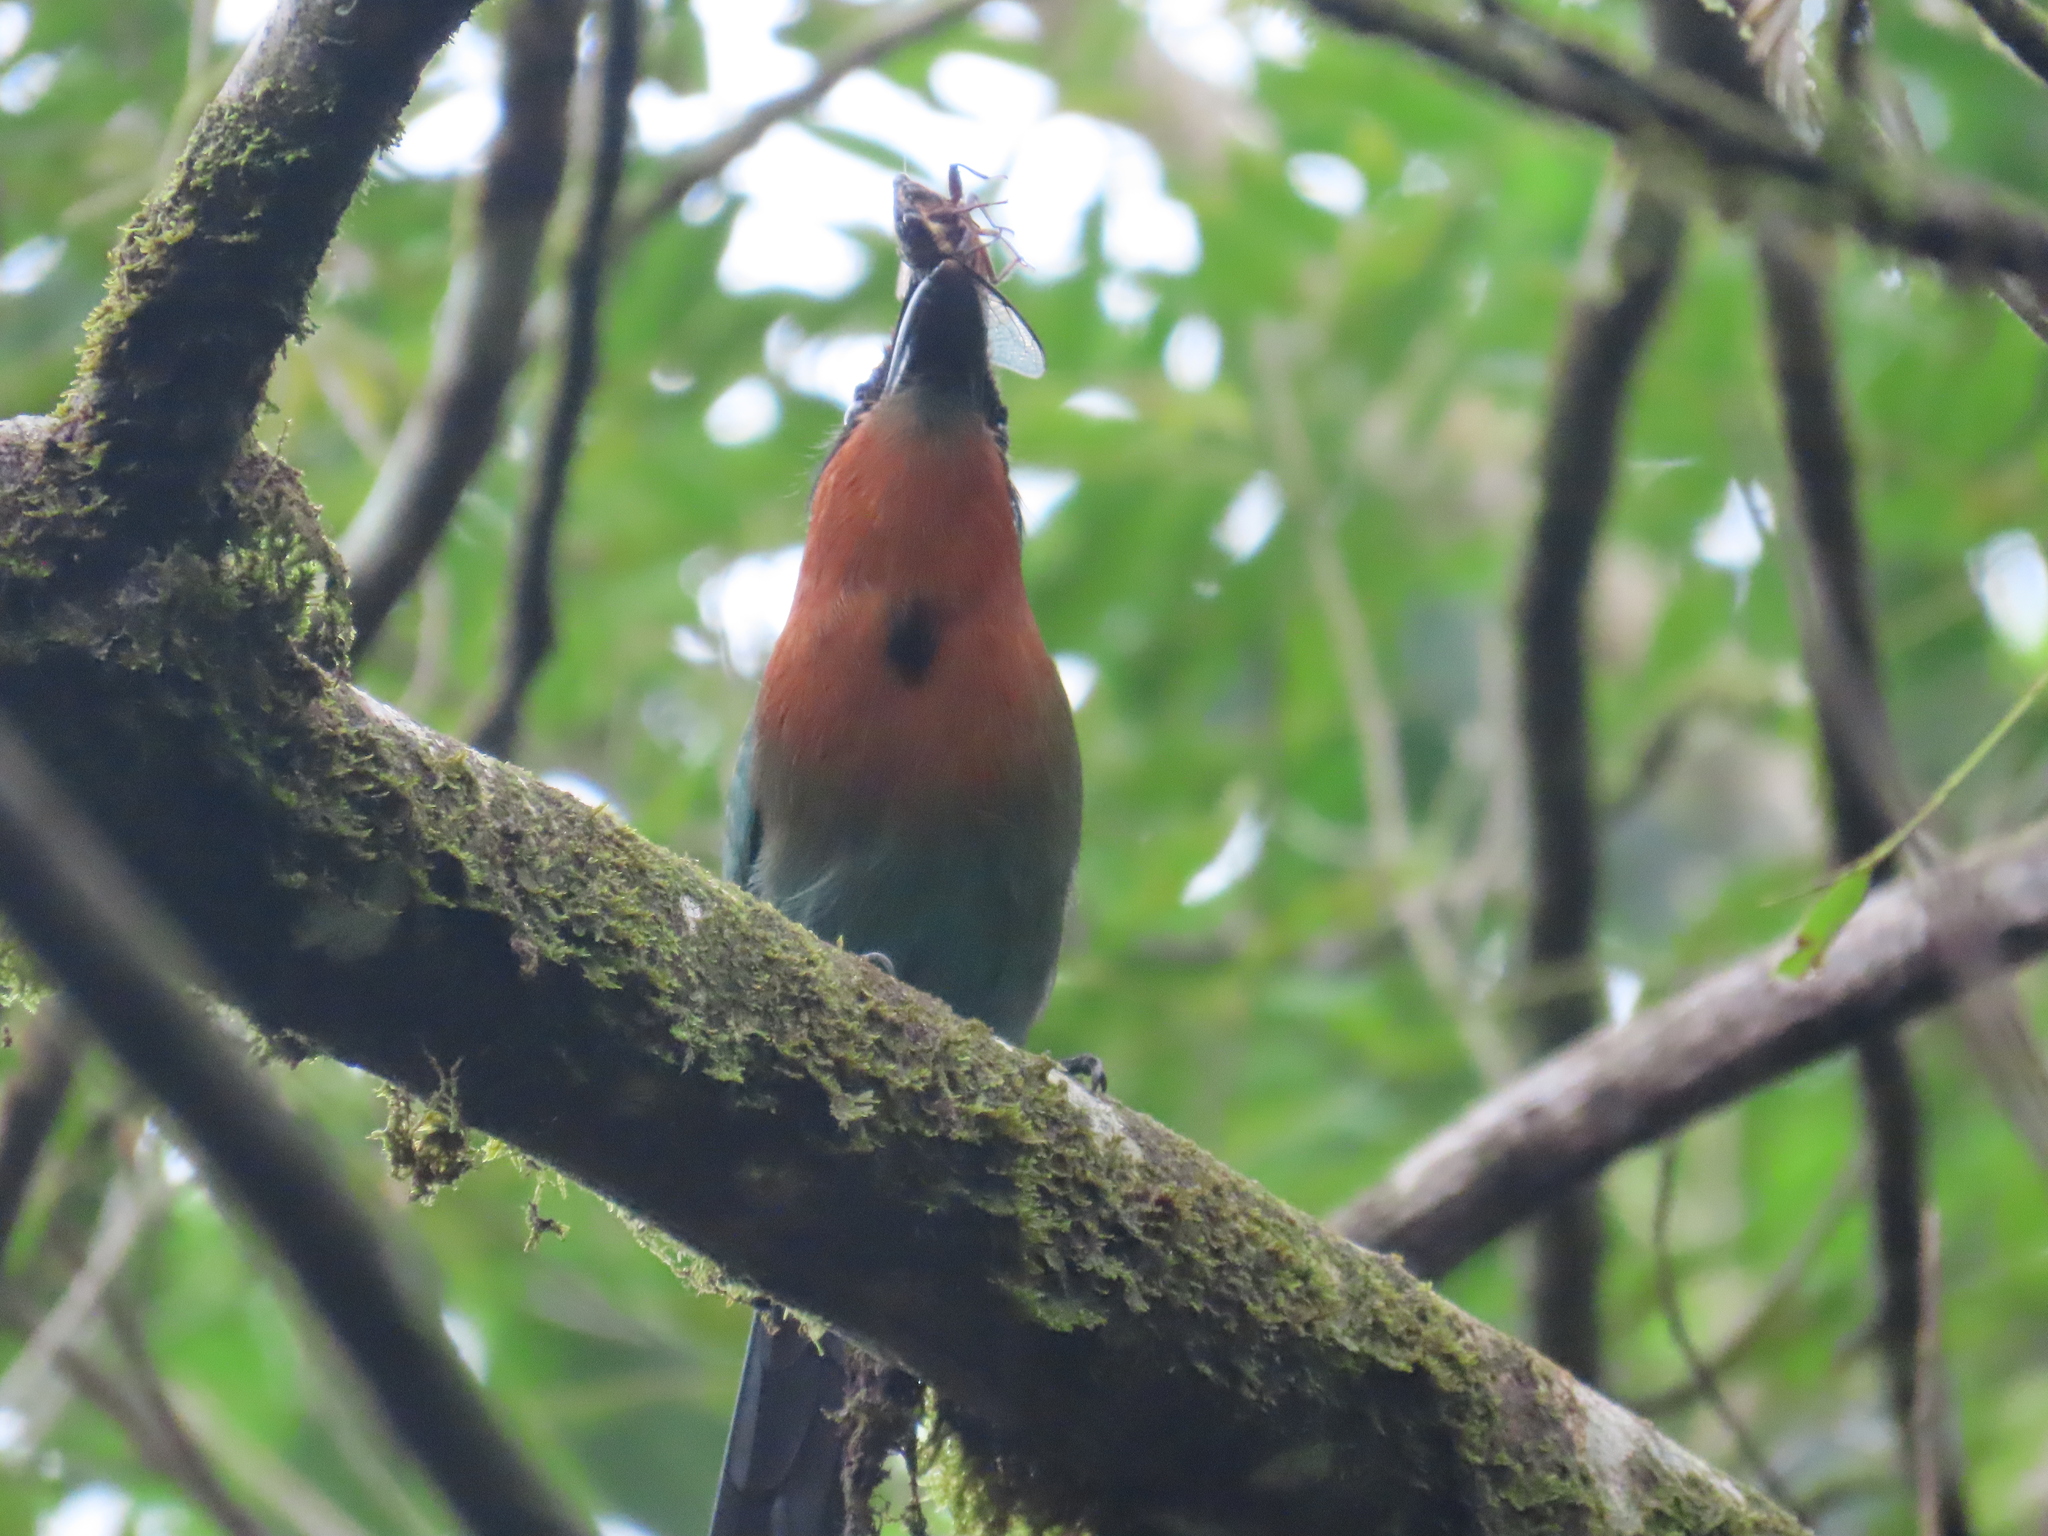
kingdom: Animalia
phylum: Chordata
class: Aves
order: Coraciiformes
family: Momotidae
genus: Electron
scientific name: Electron platyrhynchum
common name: Broad-billed motmot
